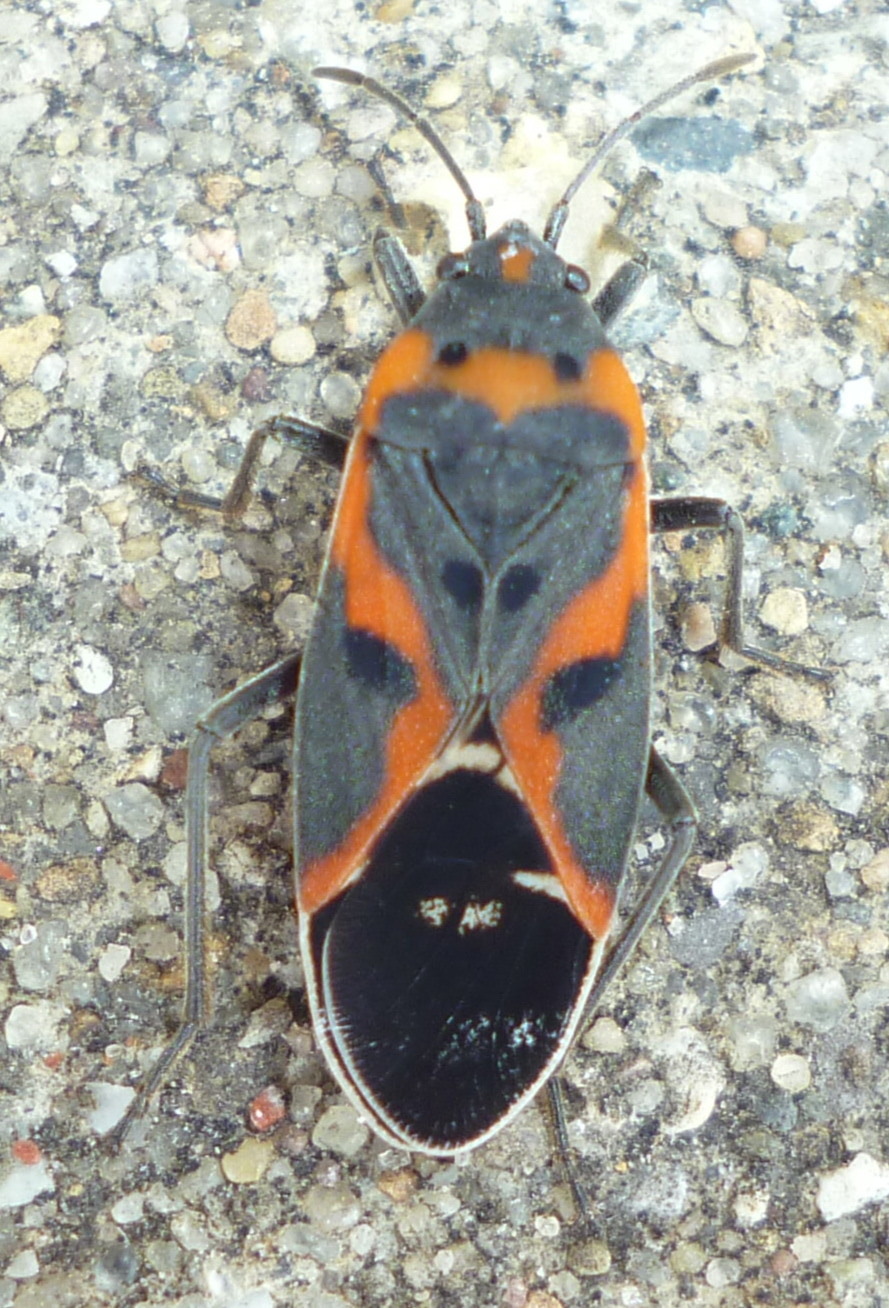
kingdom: Animalia
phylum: Arthropoda
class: Insecta
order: Hemiptera
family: Lygaeidae
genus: Lygaeus
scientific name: Lygaeus kalmii
